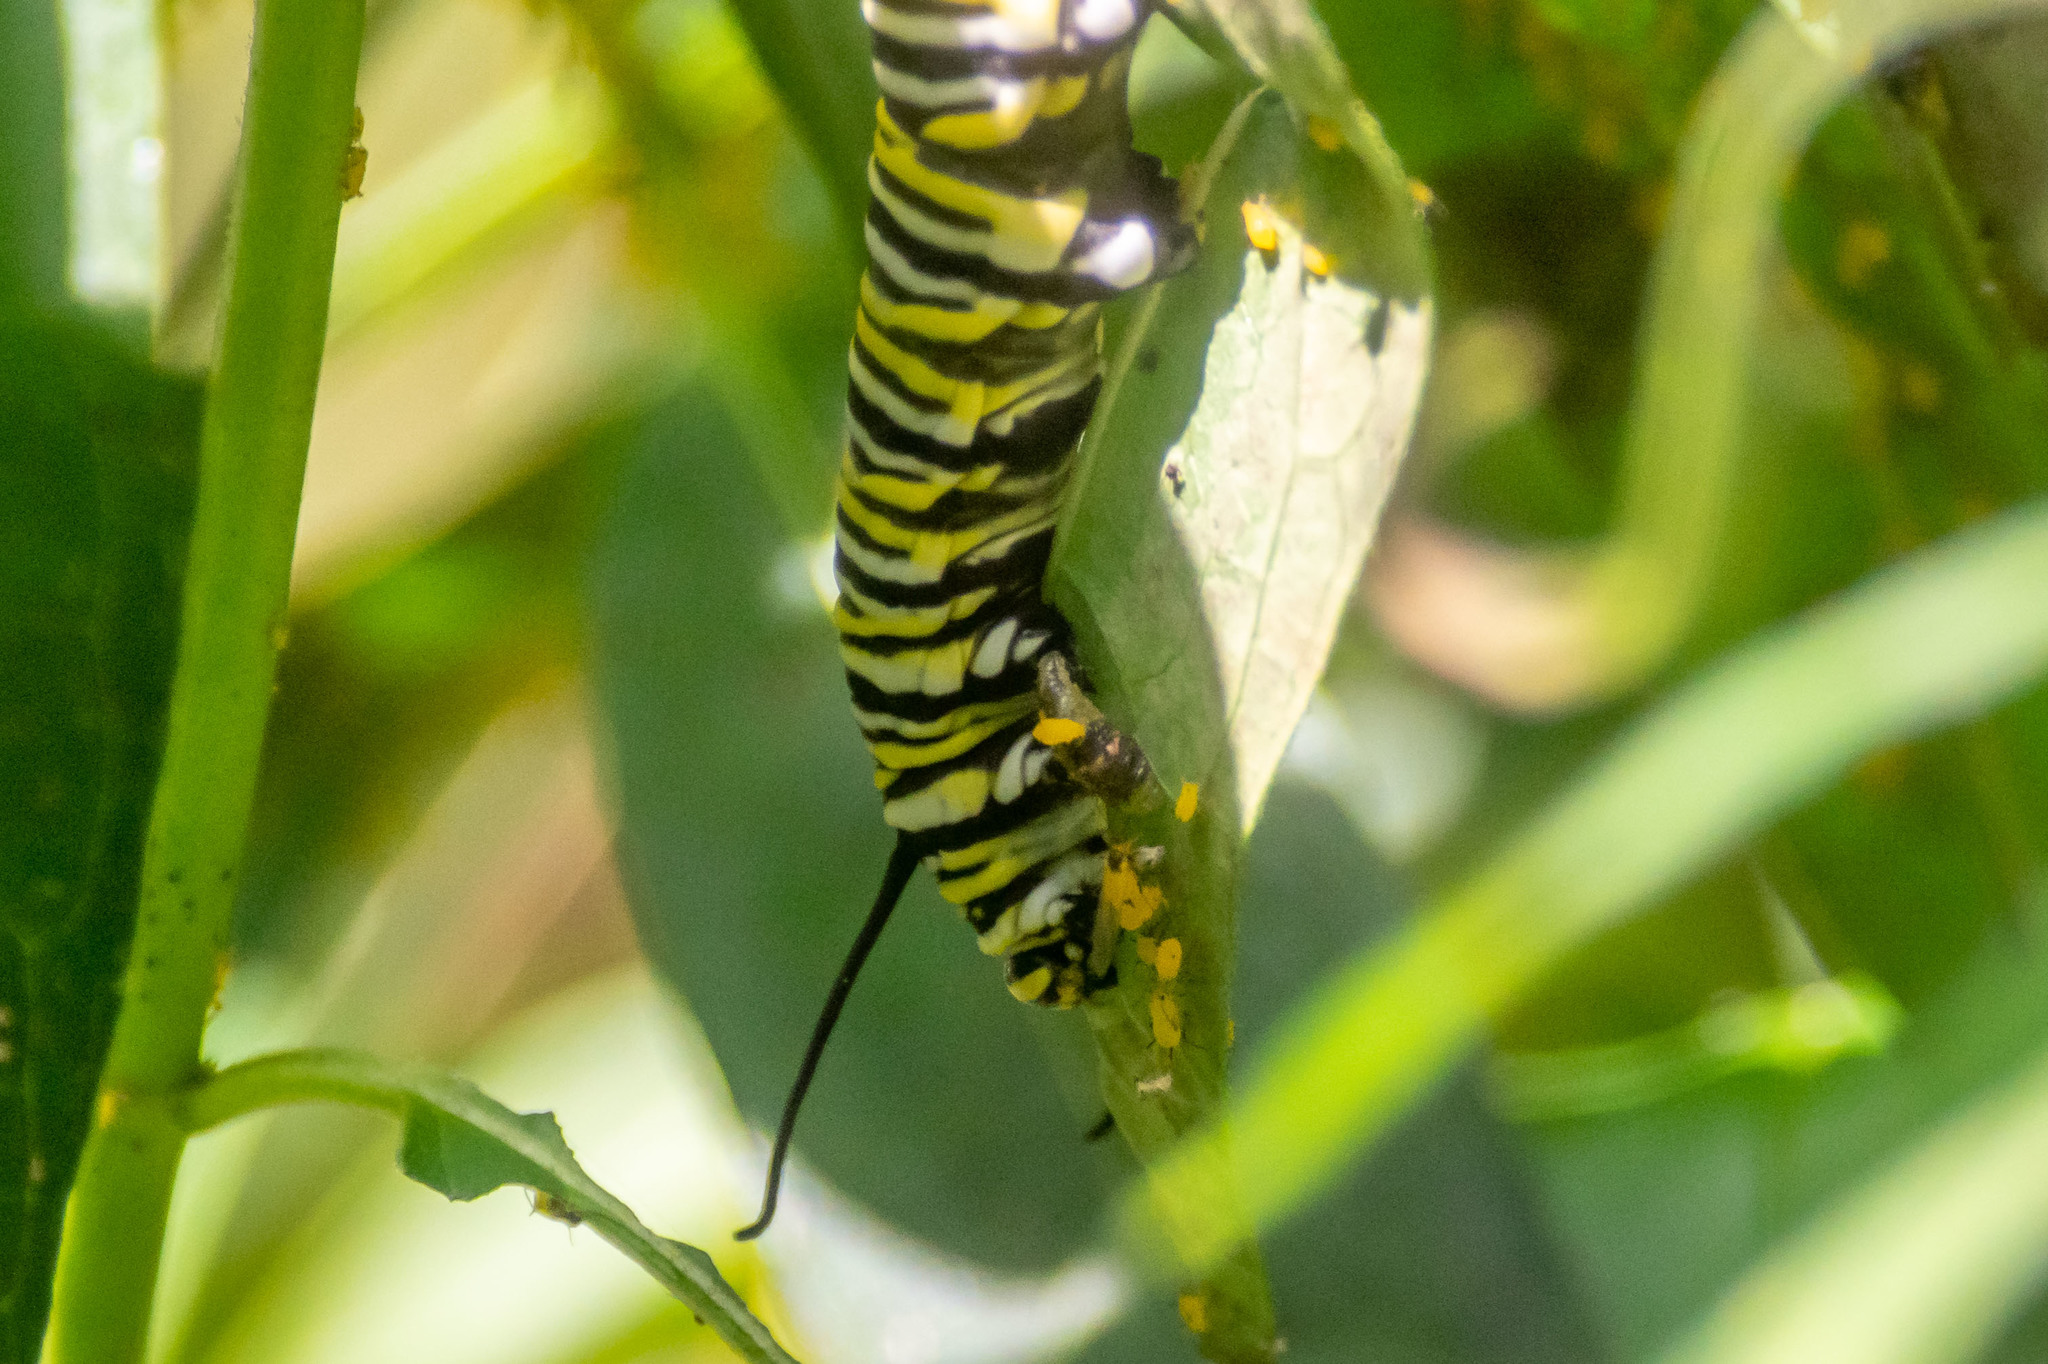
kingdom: Animalia
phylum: Arthropoda
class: Insecta
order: Lepidoptera
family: Nymphalidae
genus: Danaus
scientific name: Danaus plexippus
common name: Monarch
